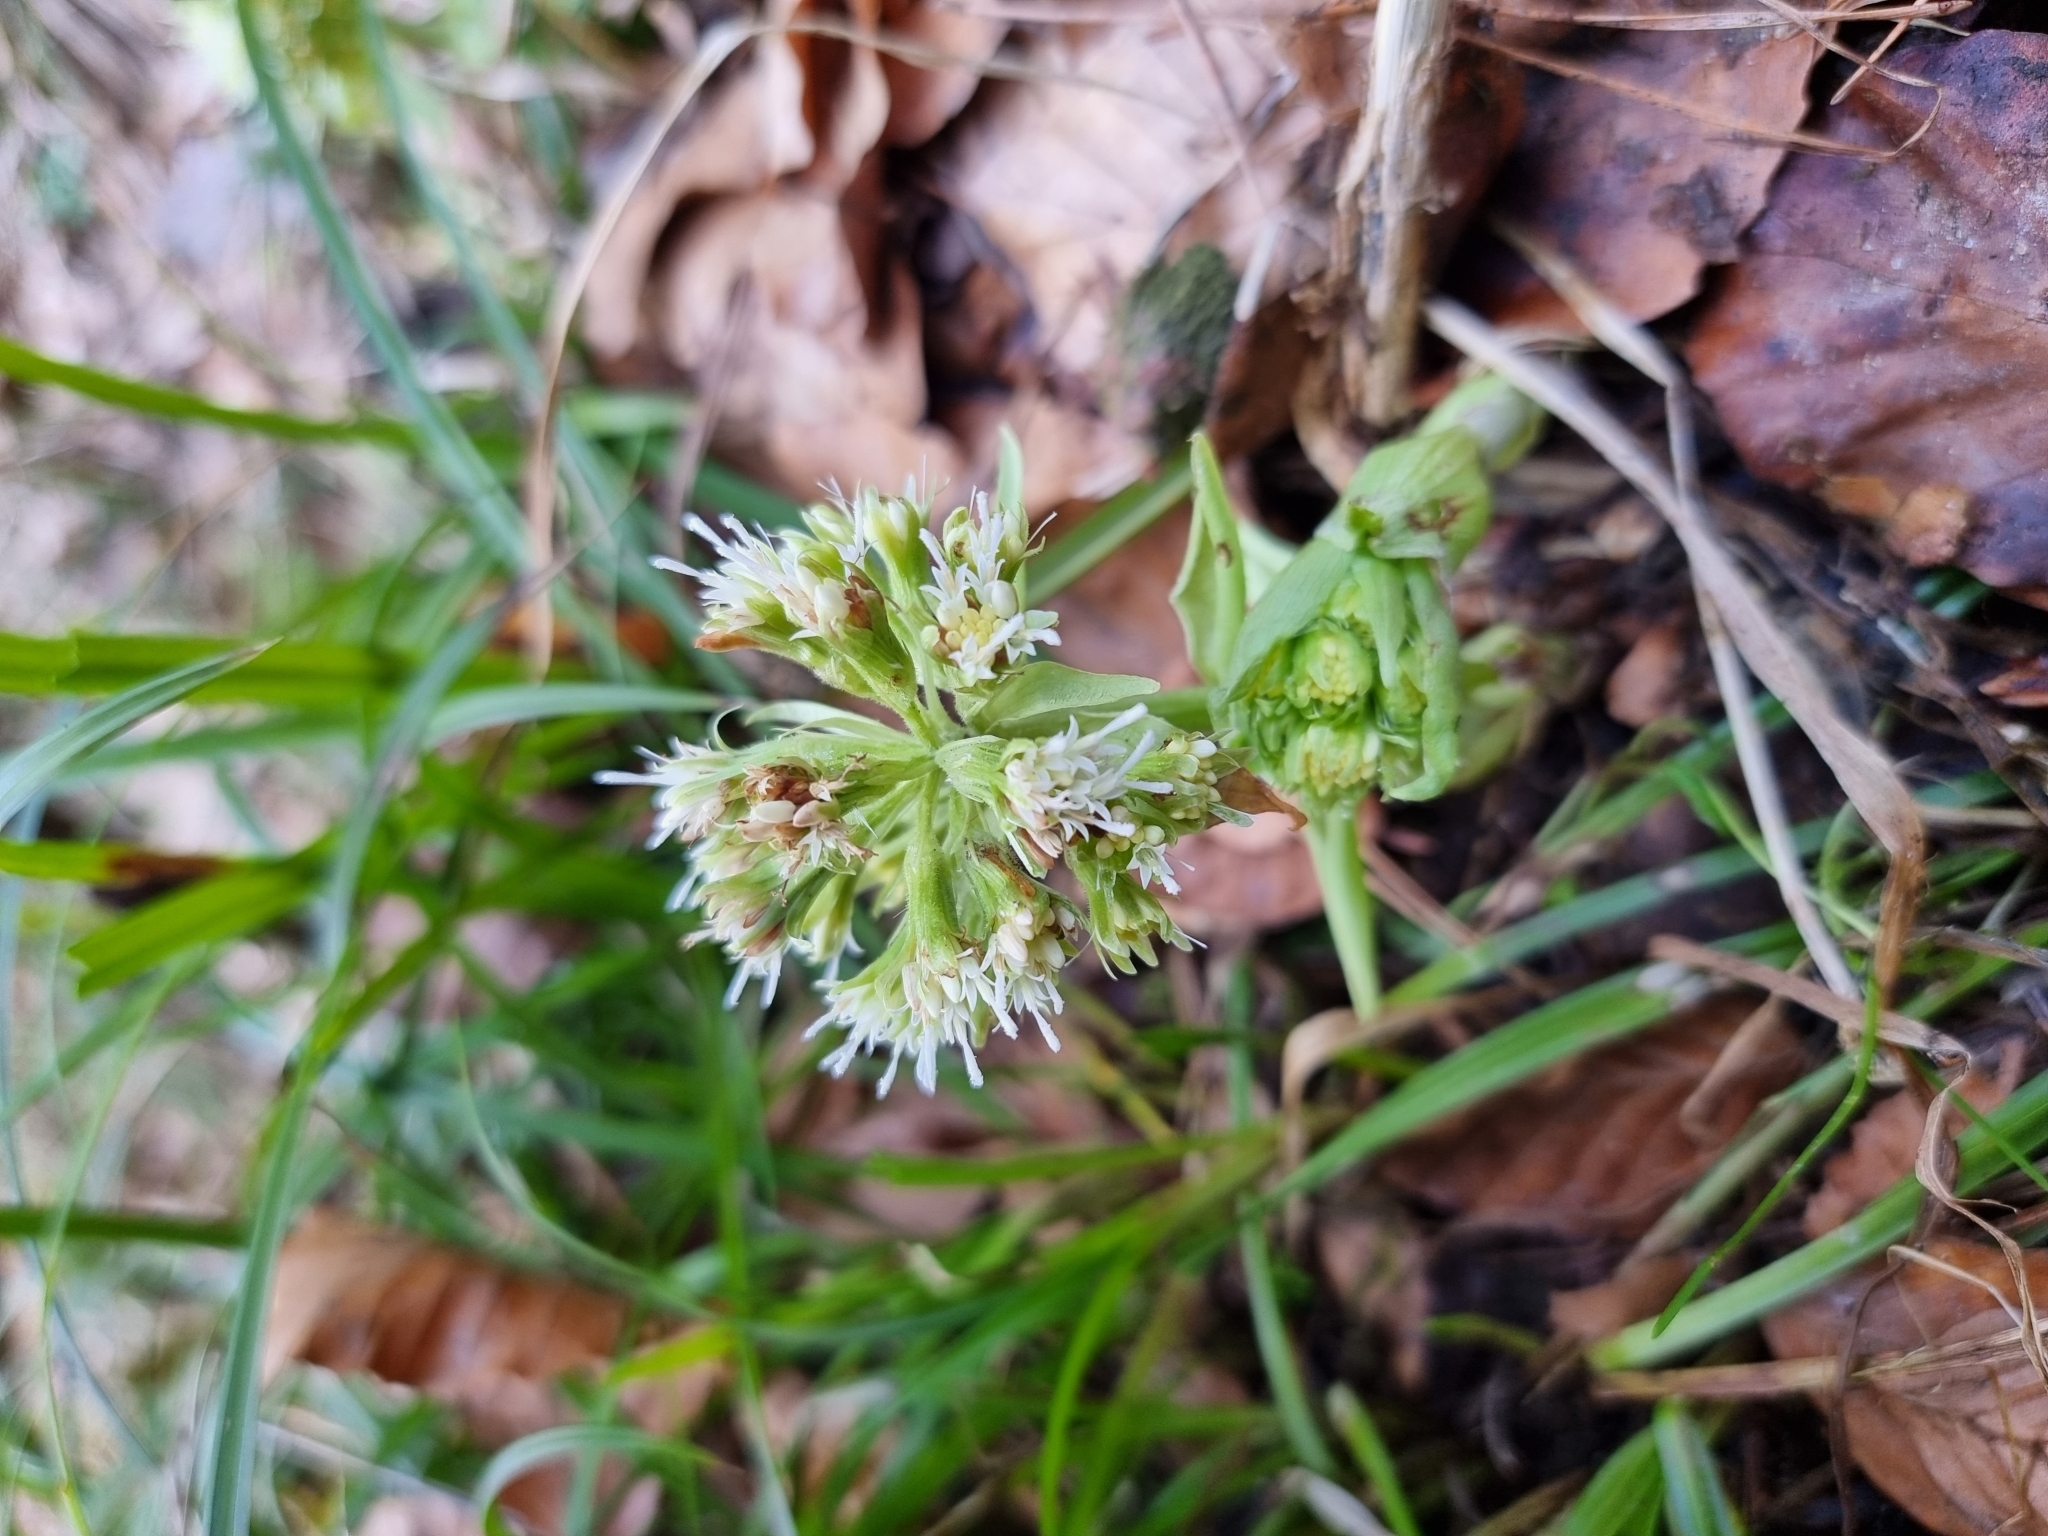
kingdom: Plantae
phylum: Tracheophyta
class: Magnoliopsida
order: Asterales
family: Asteraceae
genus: Petasites
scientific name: Petasites albus
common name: White butterbur
